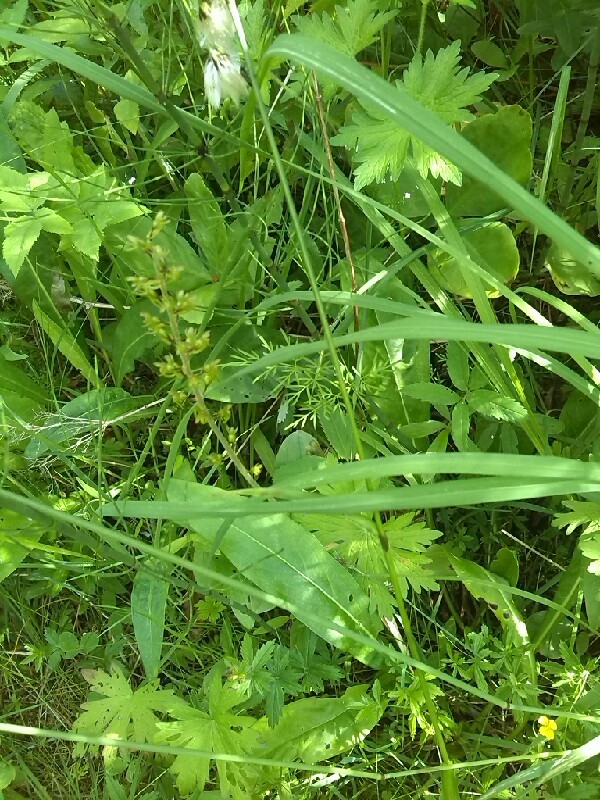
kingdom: Plantae
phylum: Tracheophyta
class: Liliopsida
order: Asparagales
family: Orchidaceae
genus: Neottia
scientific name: Neottia ovata
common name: Common twayblade
